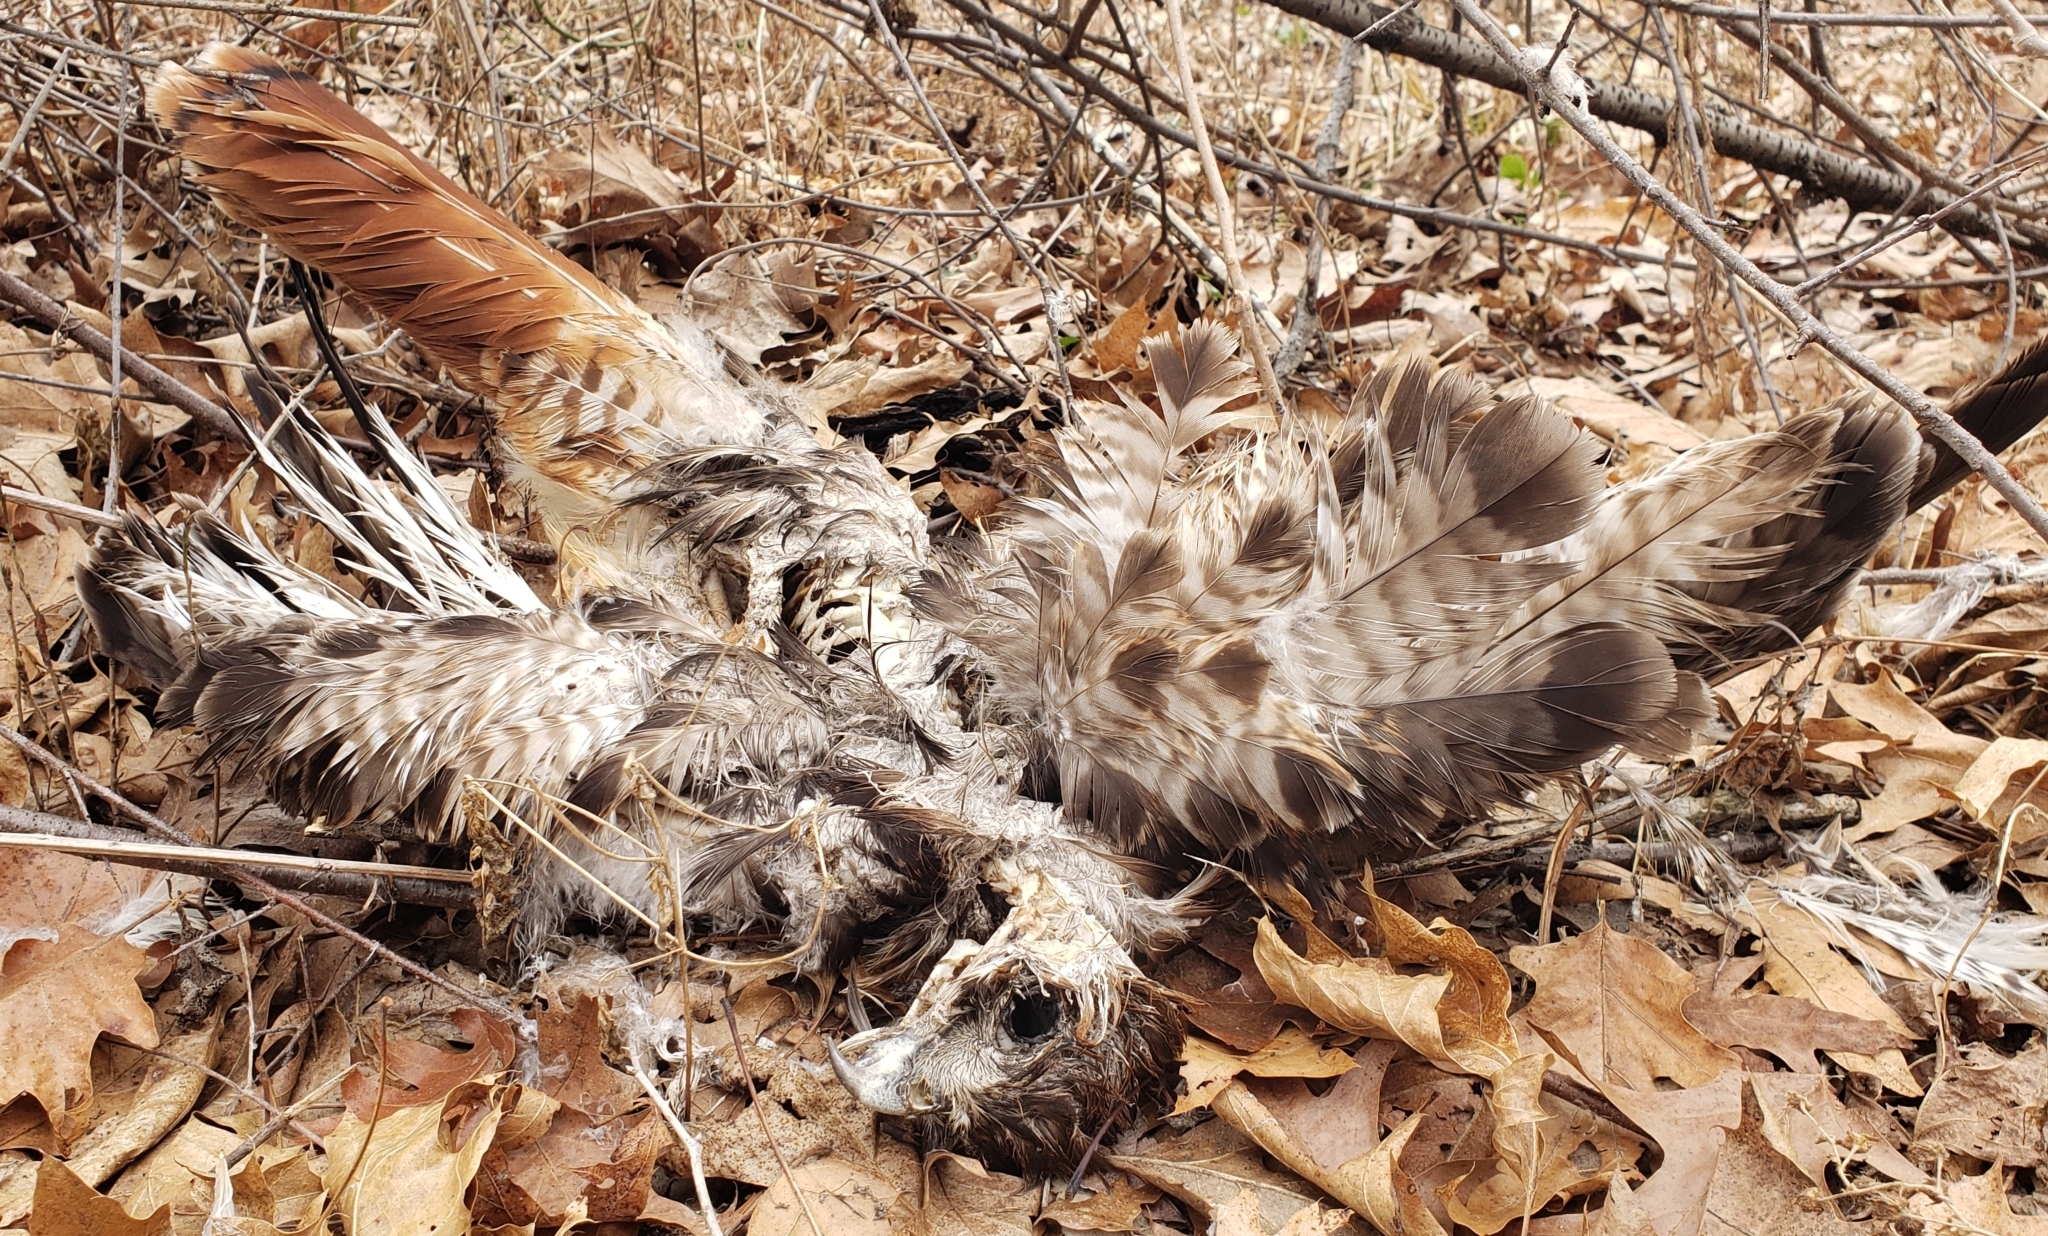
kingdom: Animalia
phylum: Chordata
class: Aves
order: Accipitriformes
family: Accipitridae
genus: Buteo
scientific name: Buteo jamaicensis
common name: Red-tailed hawk
